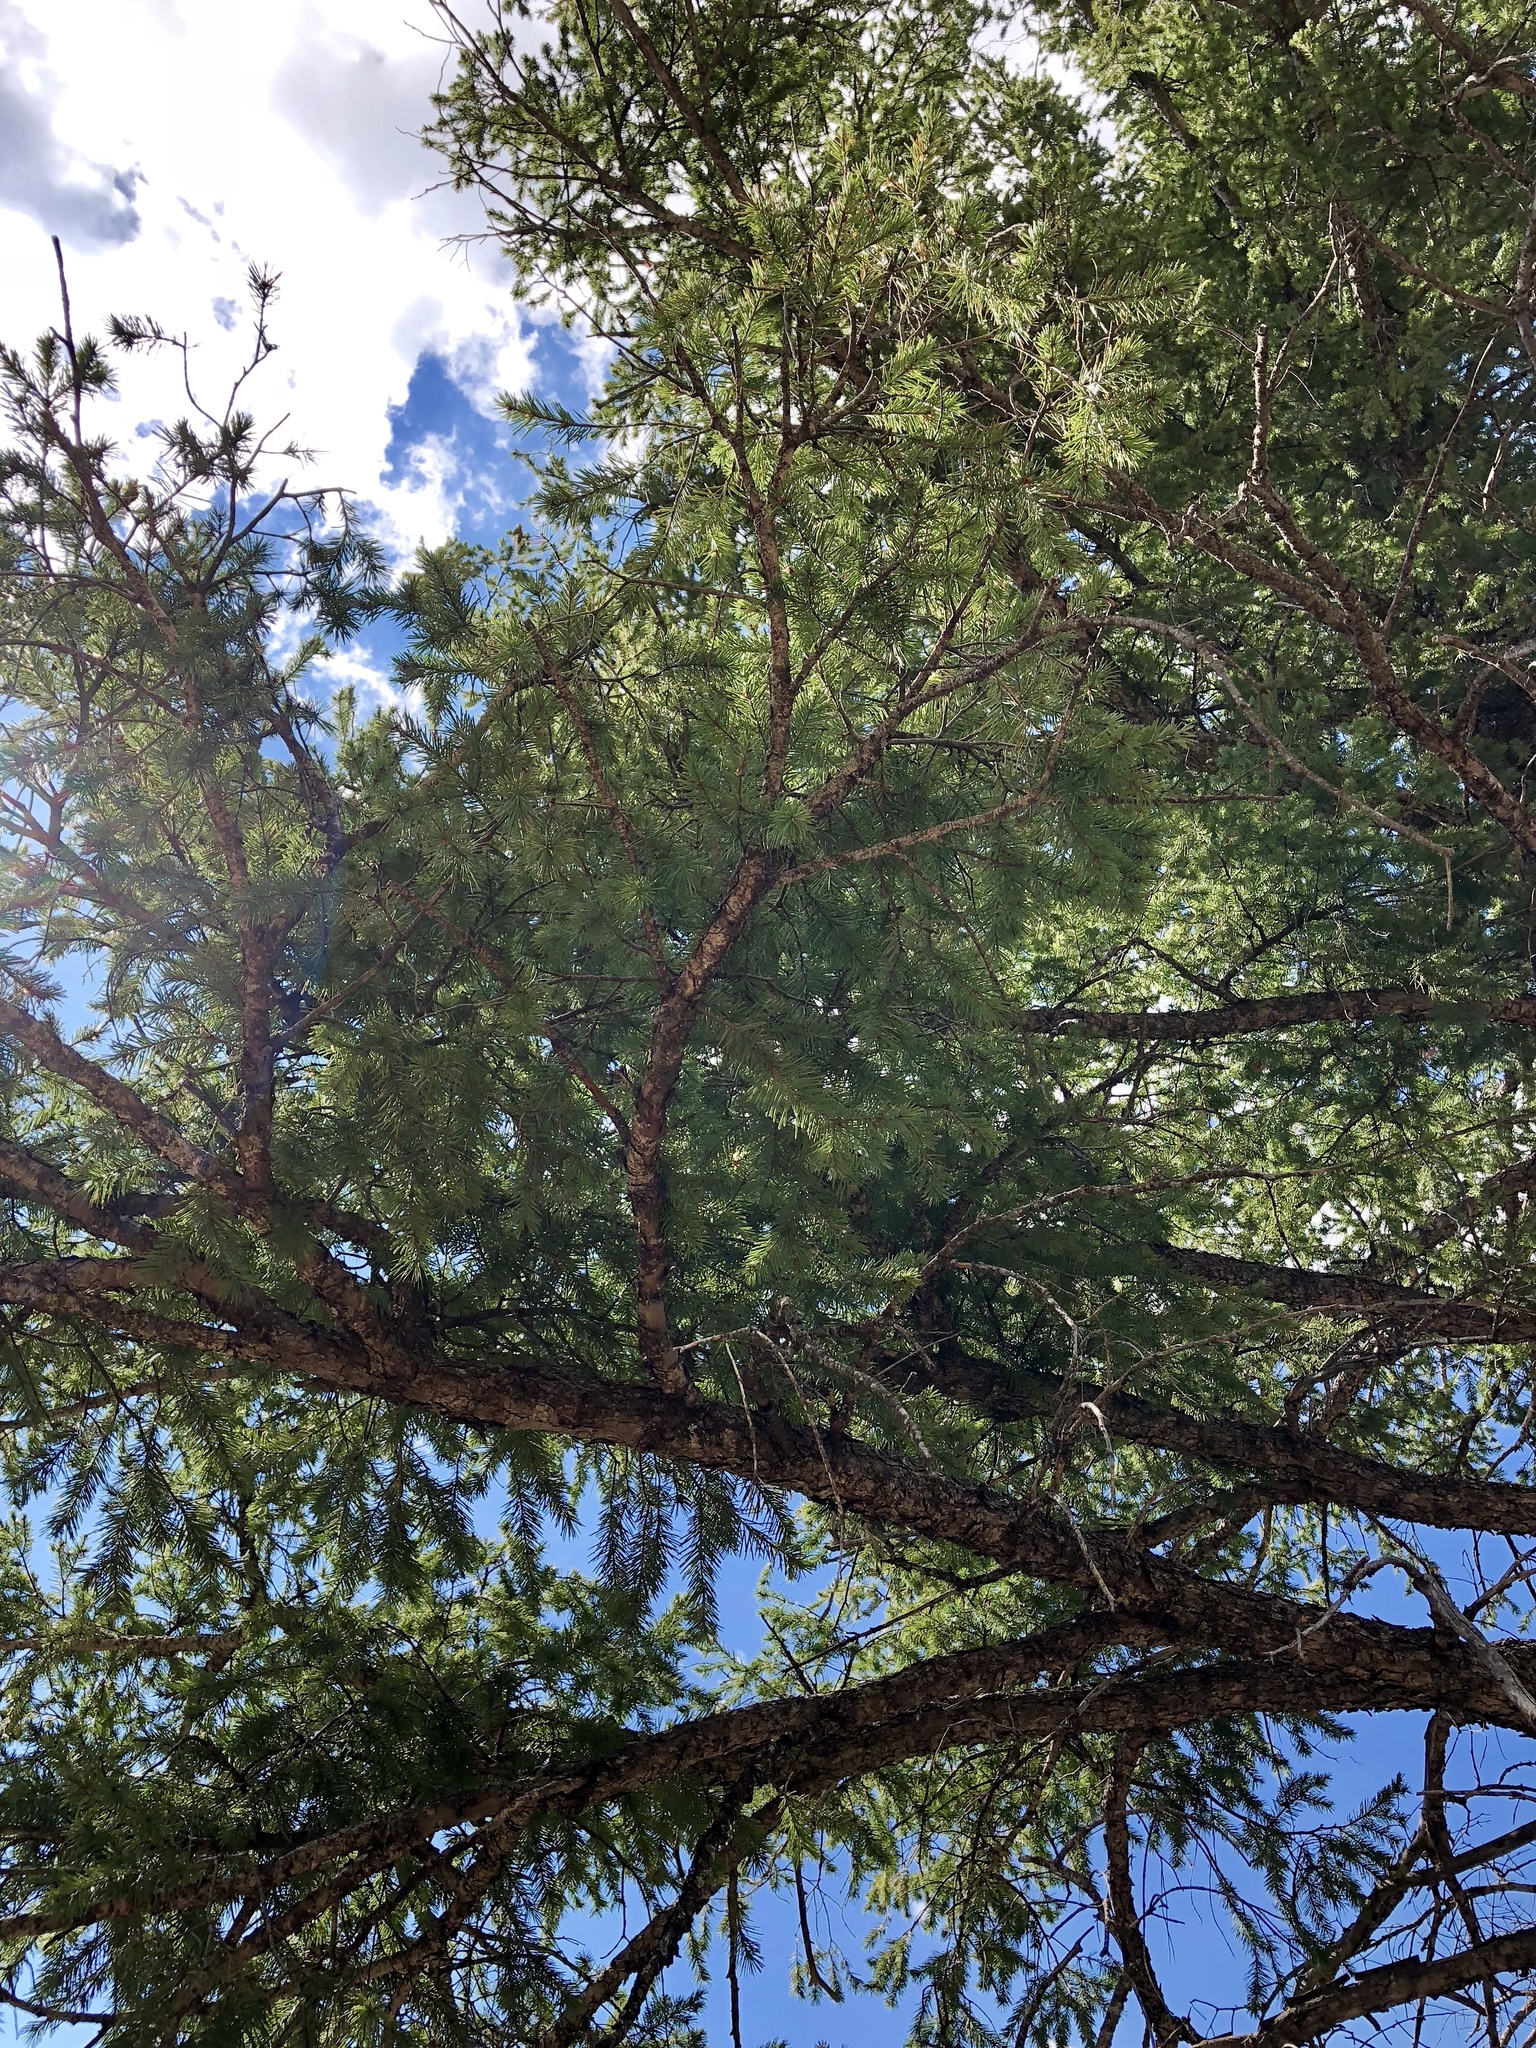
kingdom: Plantae
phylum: Tracheophyta
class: Pinopsida
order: Pinales
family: Pinaceae
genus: Pseudotsuga
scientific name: Pseudotsuga menziesii
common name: Douglas fir
